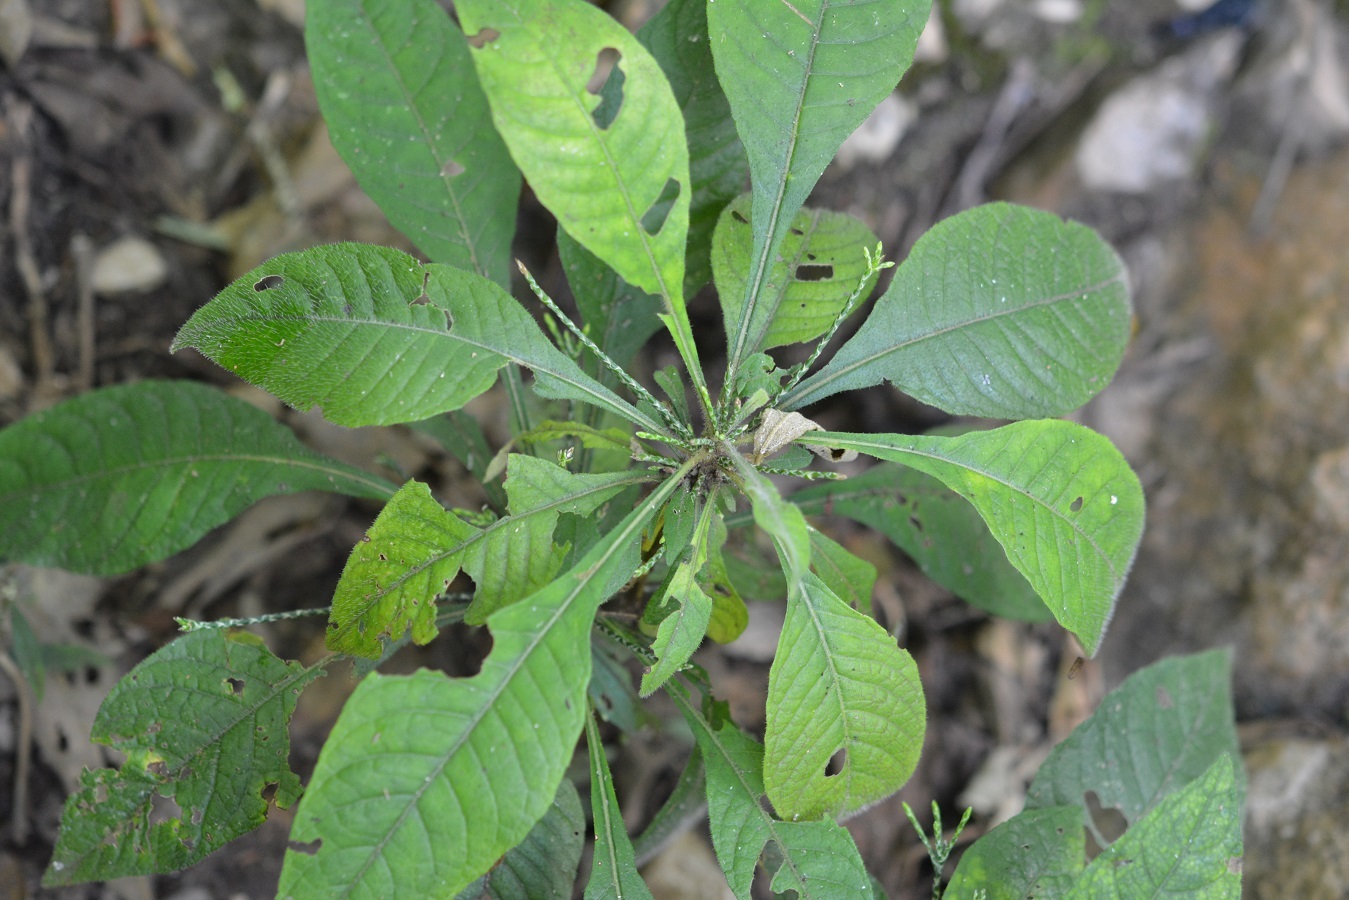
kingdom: Plantae
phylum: Tracheophyta
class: Magnoliopsida
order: Lamiales
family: Acanthaceae
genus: Elytraria
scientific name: Elytraria imbricata
